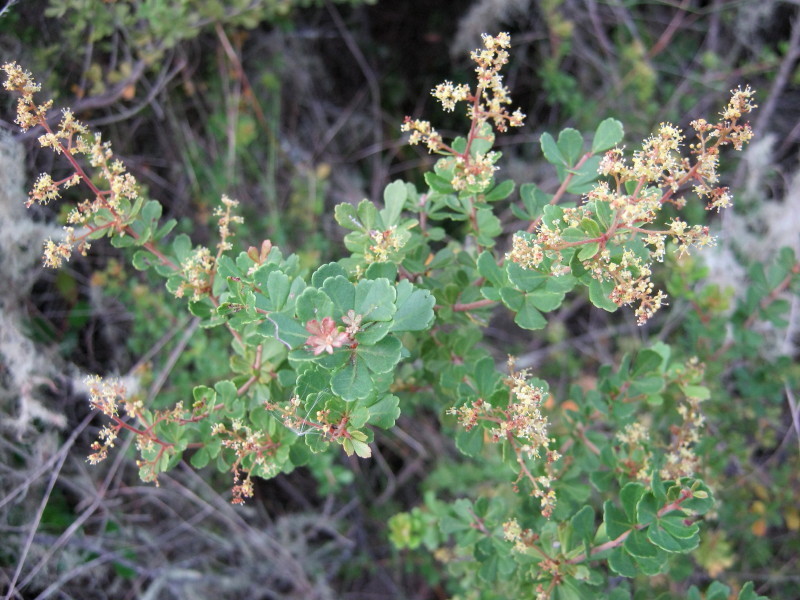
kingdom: Plantae
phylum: Tracheophyta
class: Magnoliopsida
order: Sapindales
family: Anacardiaceae
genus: Searsia
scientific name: Searsia crenata
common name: Crowberry
